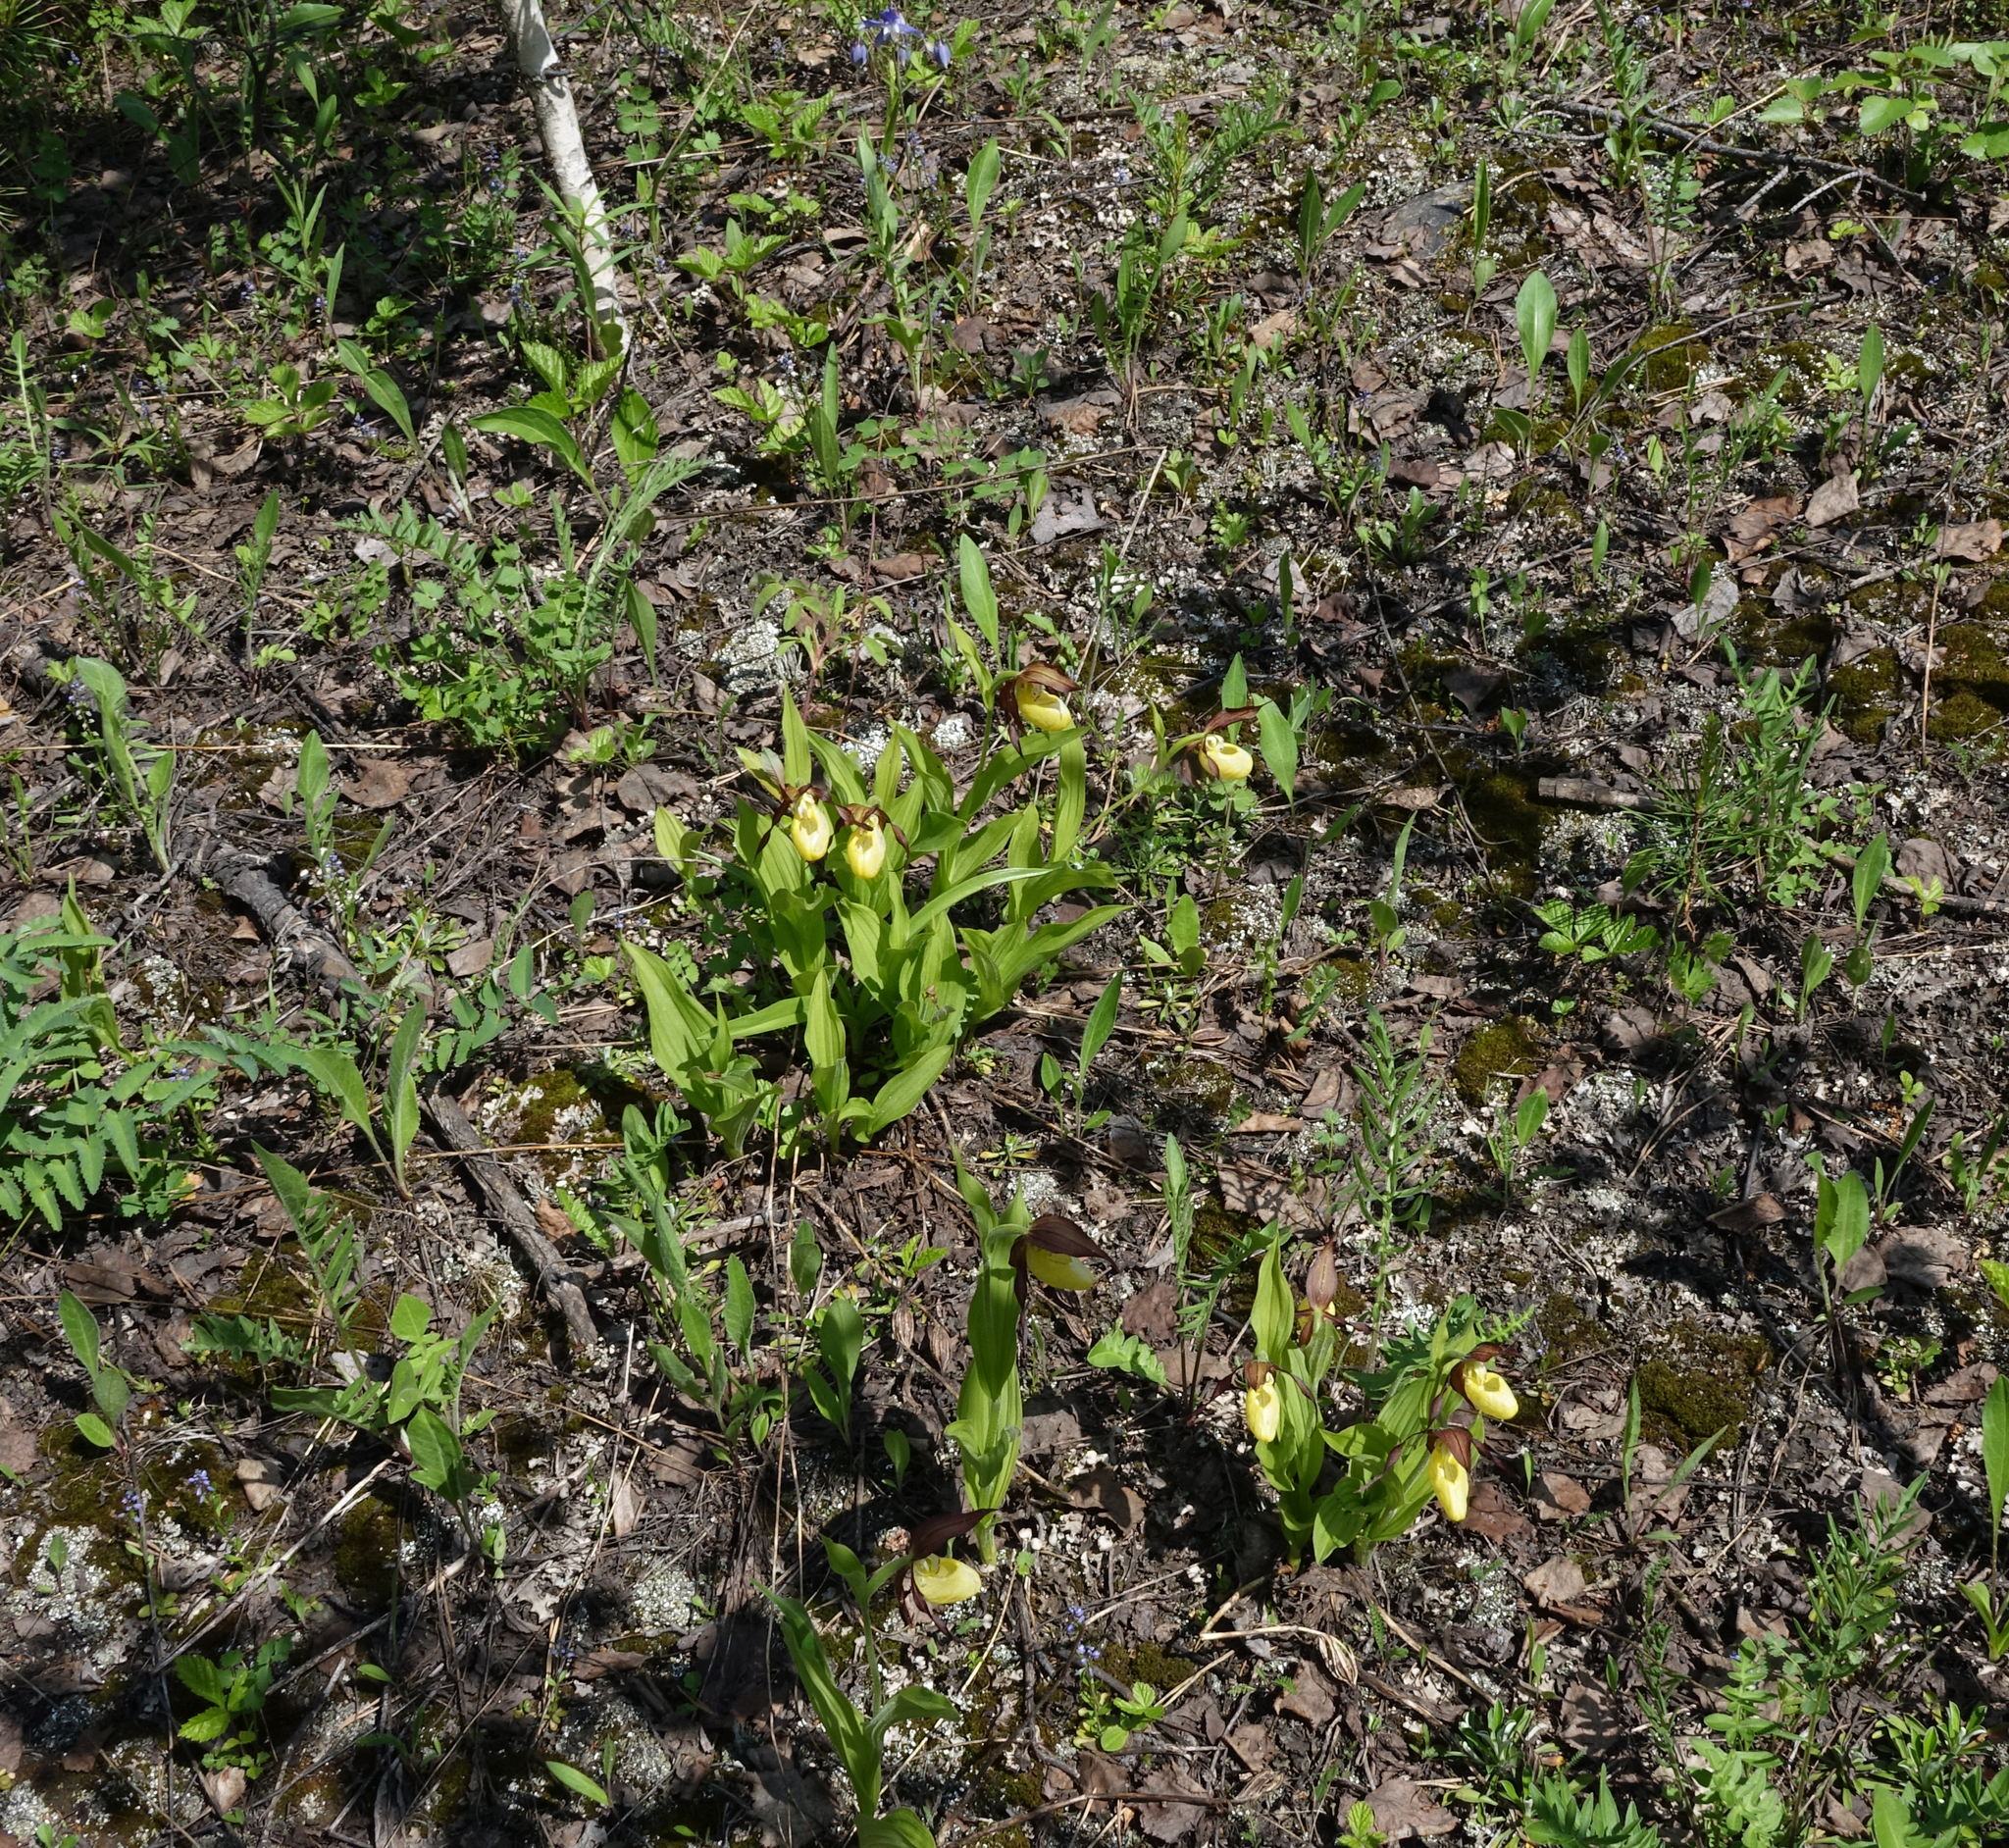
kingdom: Plantae
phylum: Tracheophyta
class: Liliopsida
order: Asparagales
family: Orchidaceae
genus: Cypripedium
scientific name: Cypripedium calceolus
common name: Lady's-slipper
